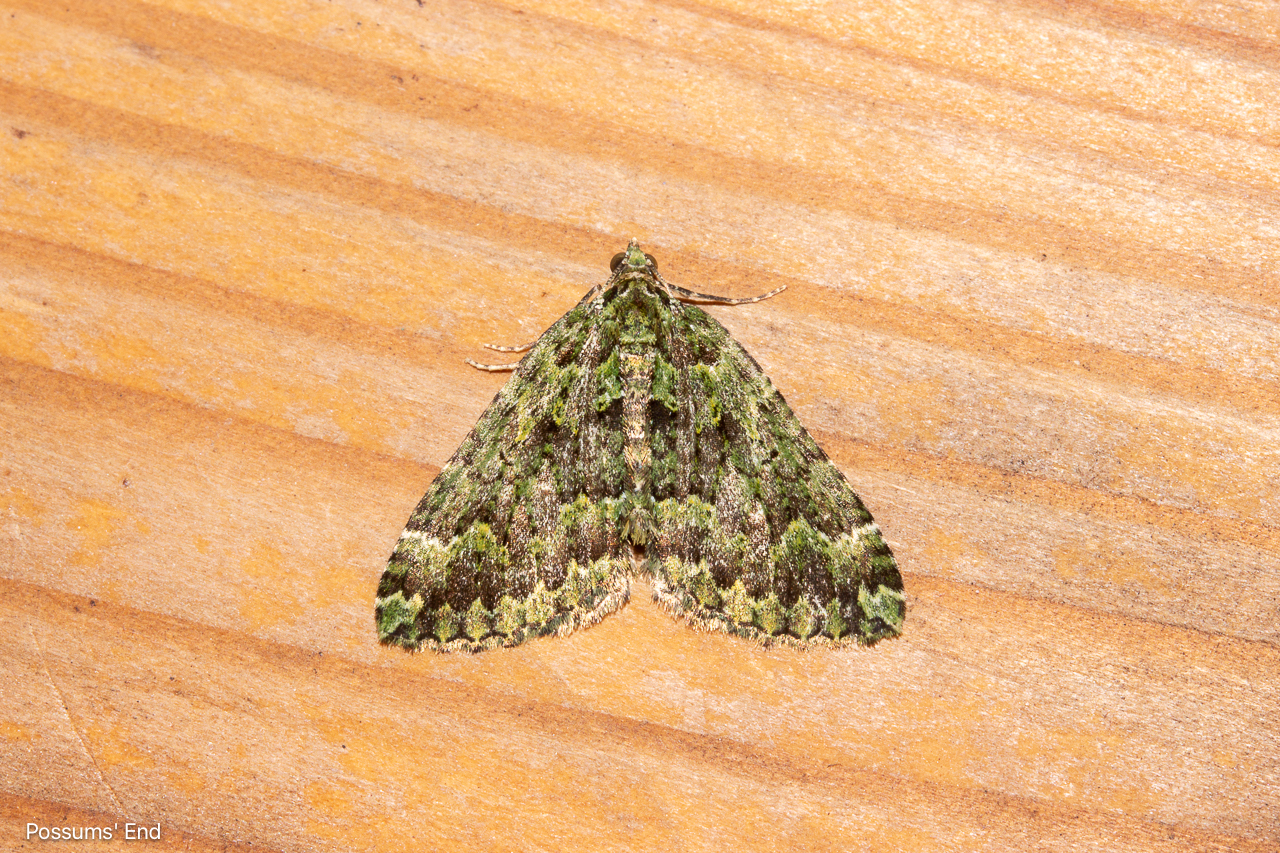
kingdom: Animalia
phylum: Arthropoda
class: Insecta
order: Lepidoptera
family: Geometridae
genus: Austrocidaria
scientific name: Austrocidaria callichlora
